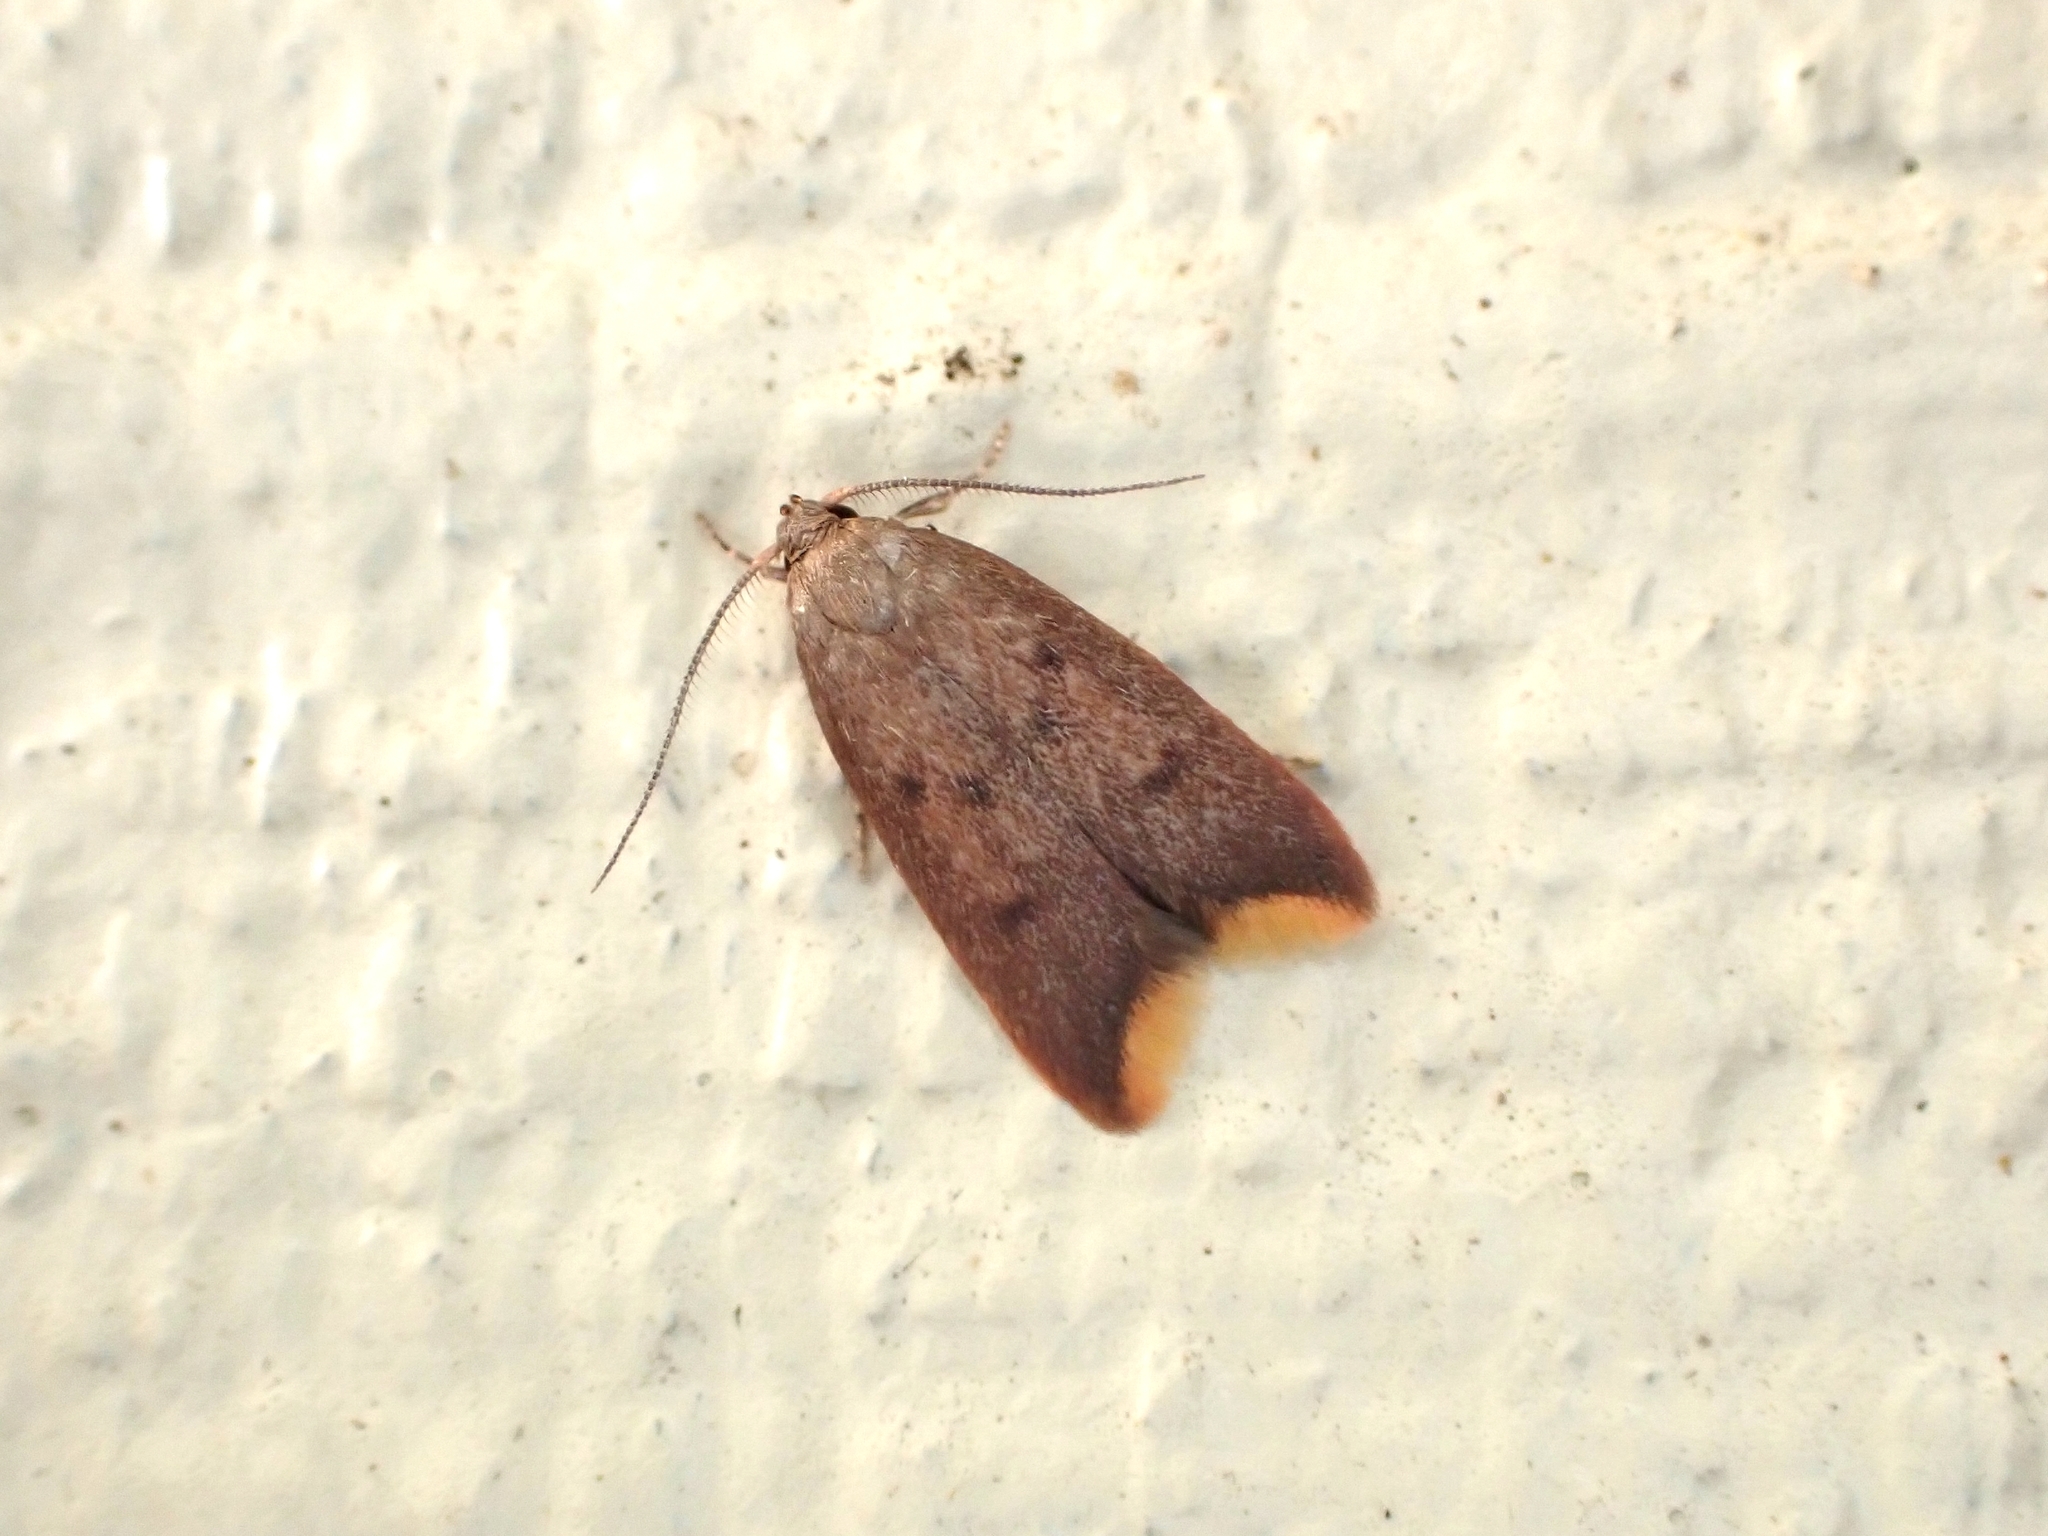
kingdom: Animalia
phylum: Arthropoda
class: Insecta
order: Lepidoptera
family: Oecophoridae
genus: Tachystola
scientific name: Tachystola acroxantha
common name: Ruddy streak
